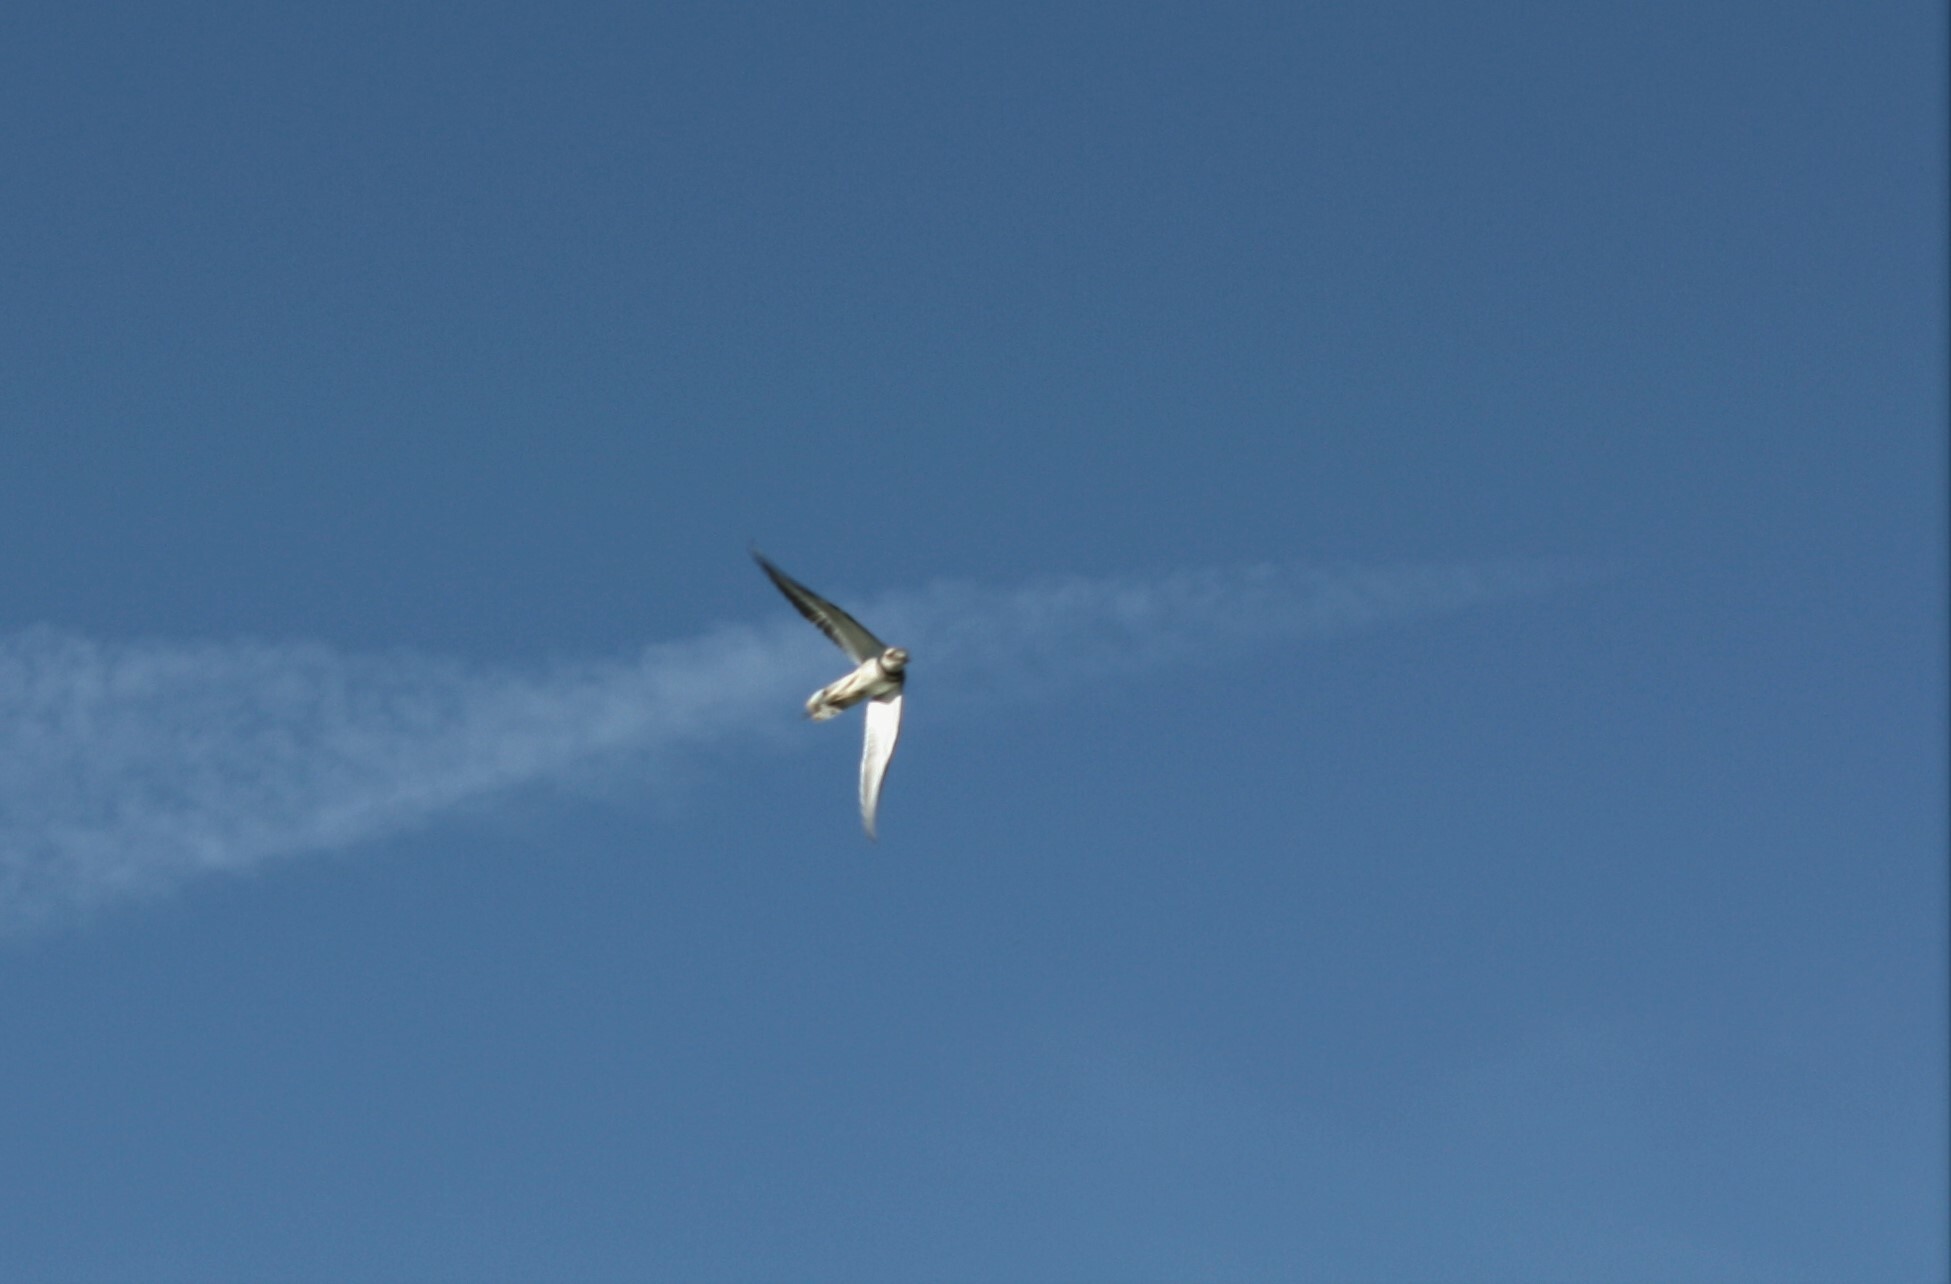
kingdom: Animalia
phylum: Chordata
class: Aves
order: Charadriiformes
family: Charadriidae
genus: Charadrius
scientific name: Charadrius vociferus
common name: Killdeer
